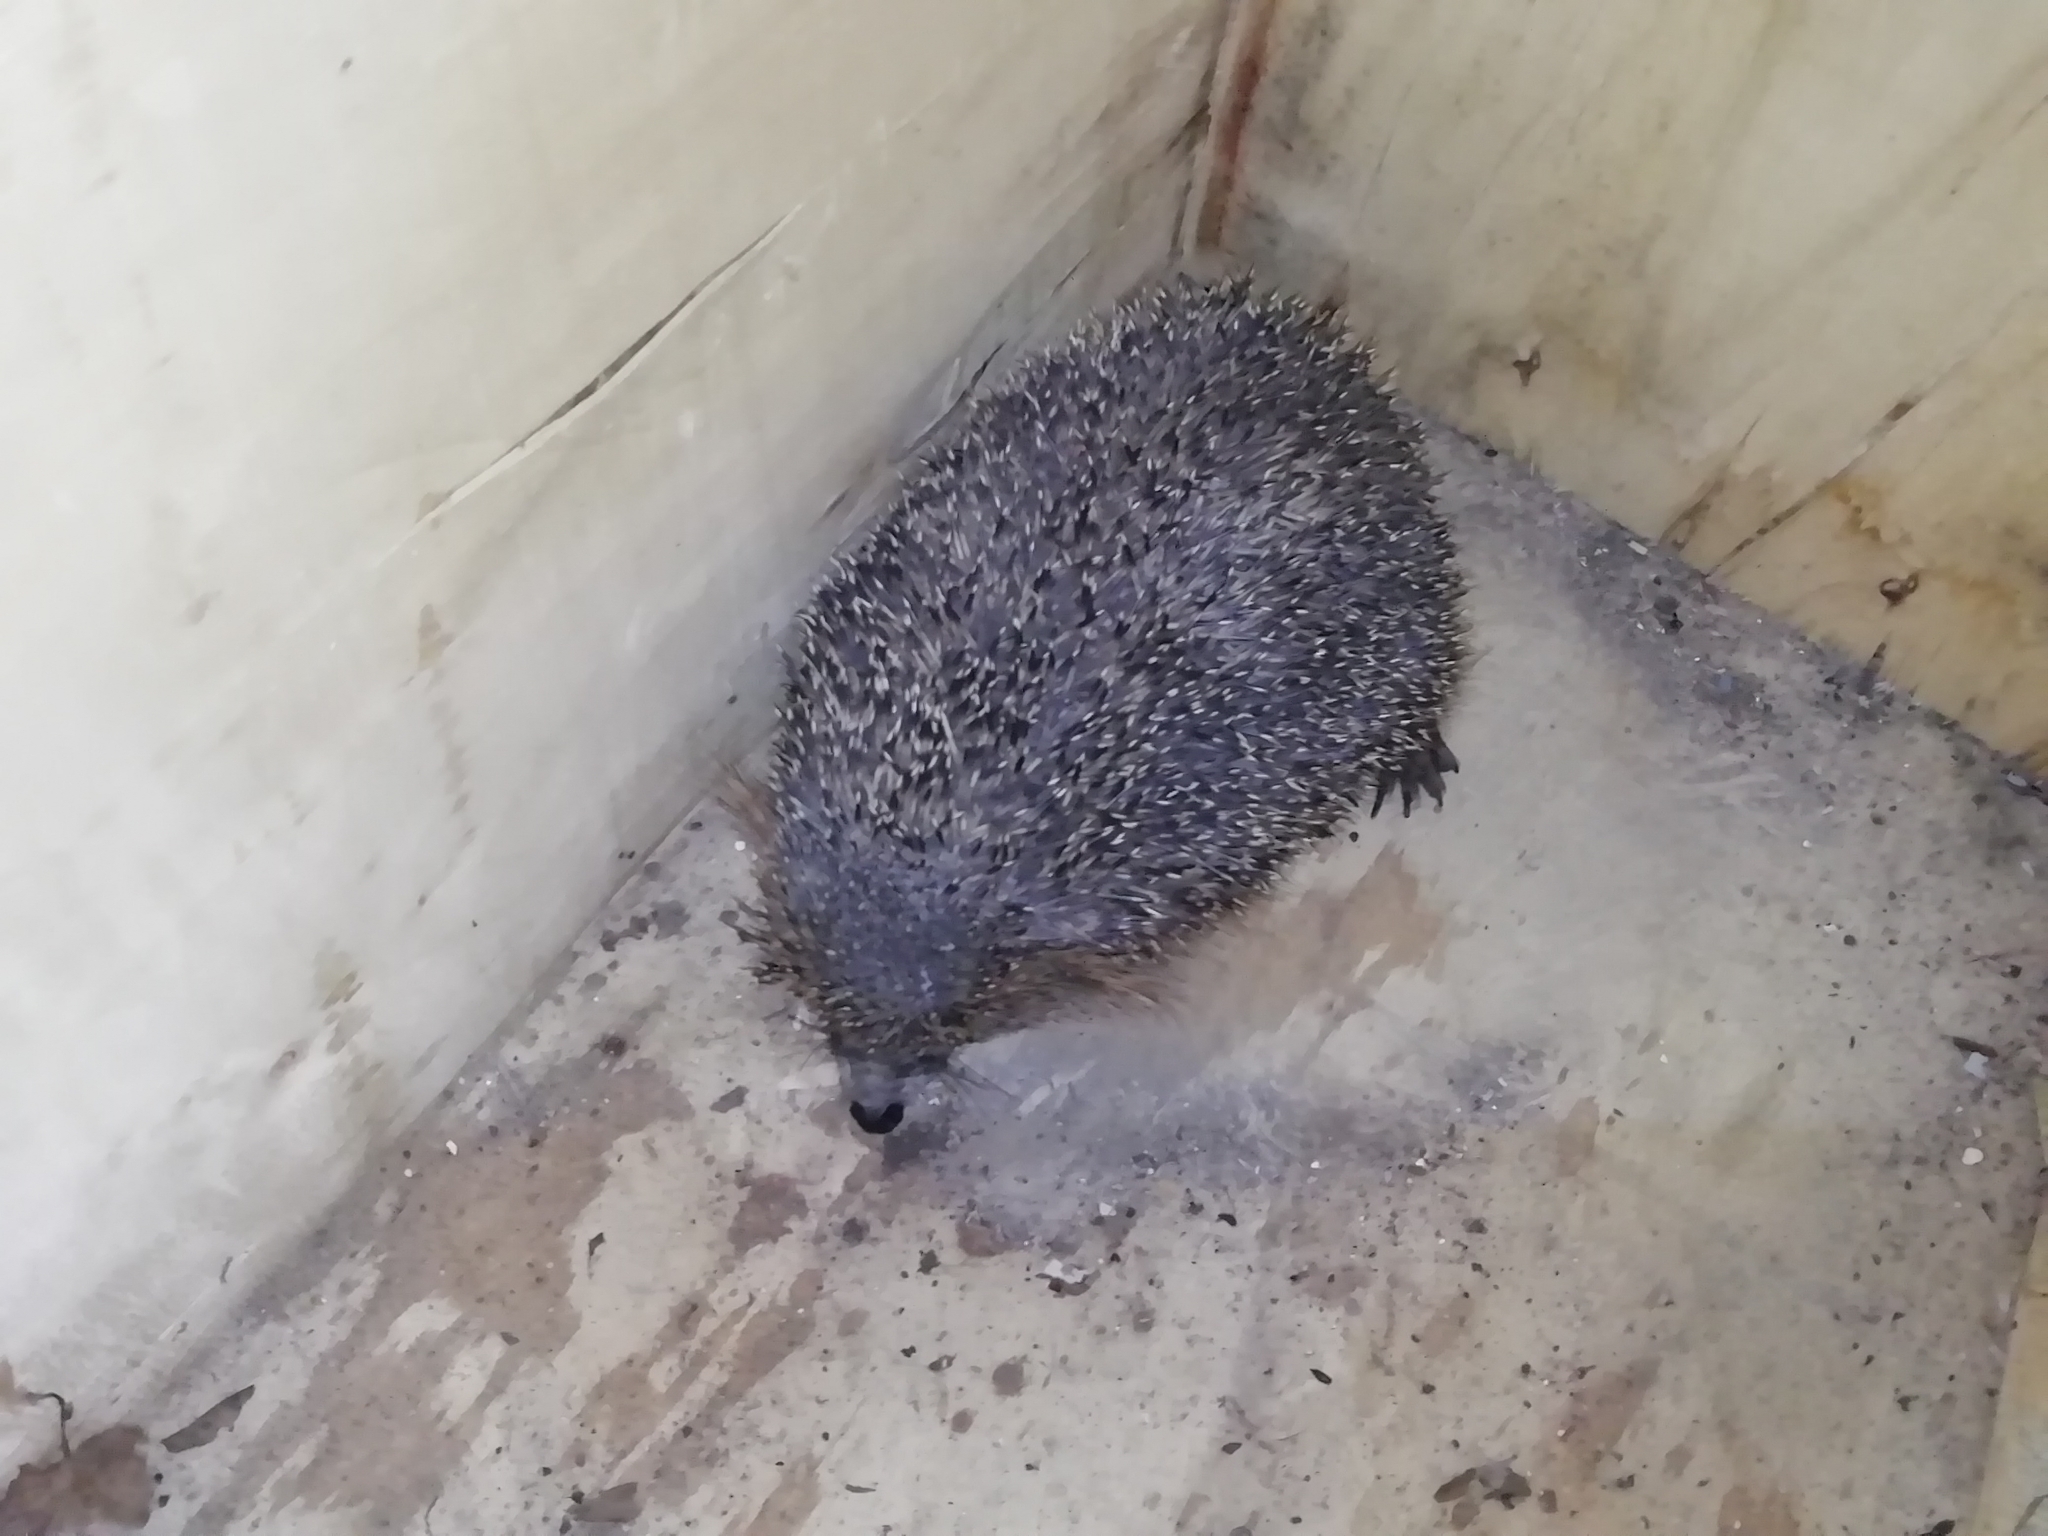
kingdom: Animalia
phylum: Chordata
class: Mammalia
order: Erinaceomorpha
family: Erinaceidae
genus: Erinaceus
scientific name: Erinaceus roumanicus
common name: Northern white-breasted hedgehog
